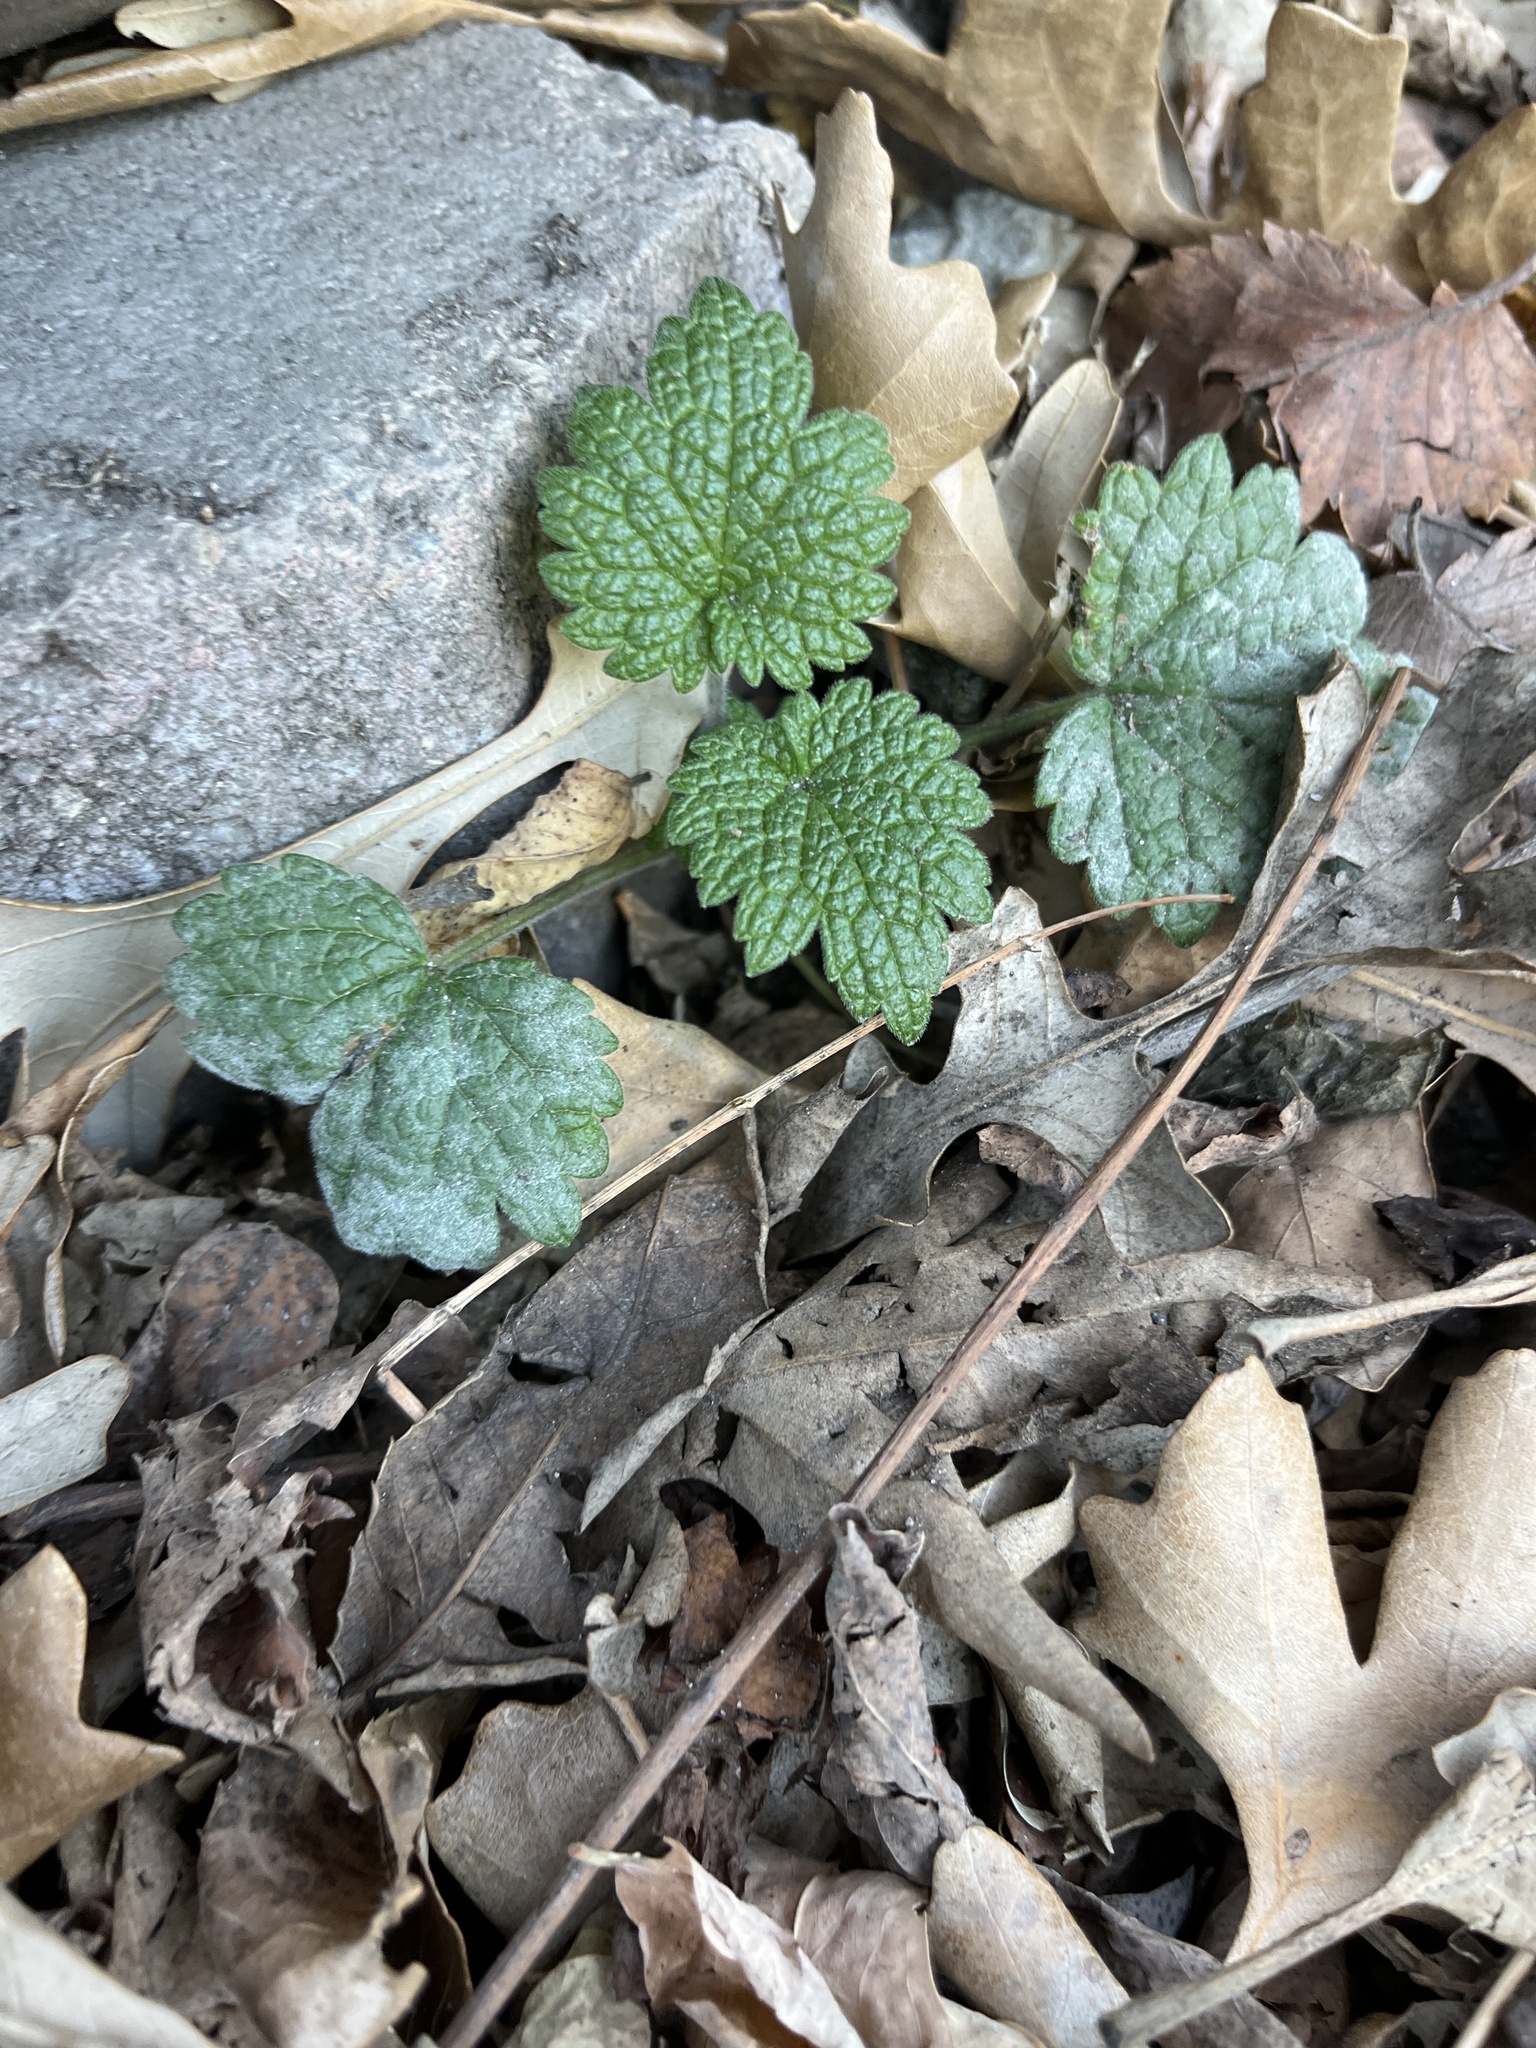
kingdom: Plantae
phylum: Tracheophyta
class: Magnoliopsida
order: Lamiales
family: Lamiaceae
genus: Leonurus
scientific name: Leonurus cardiaca
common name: Motherwort
